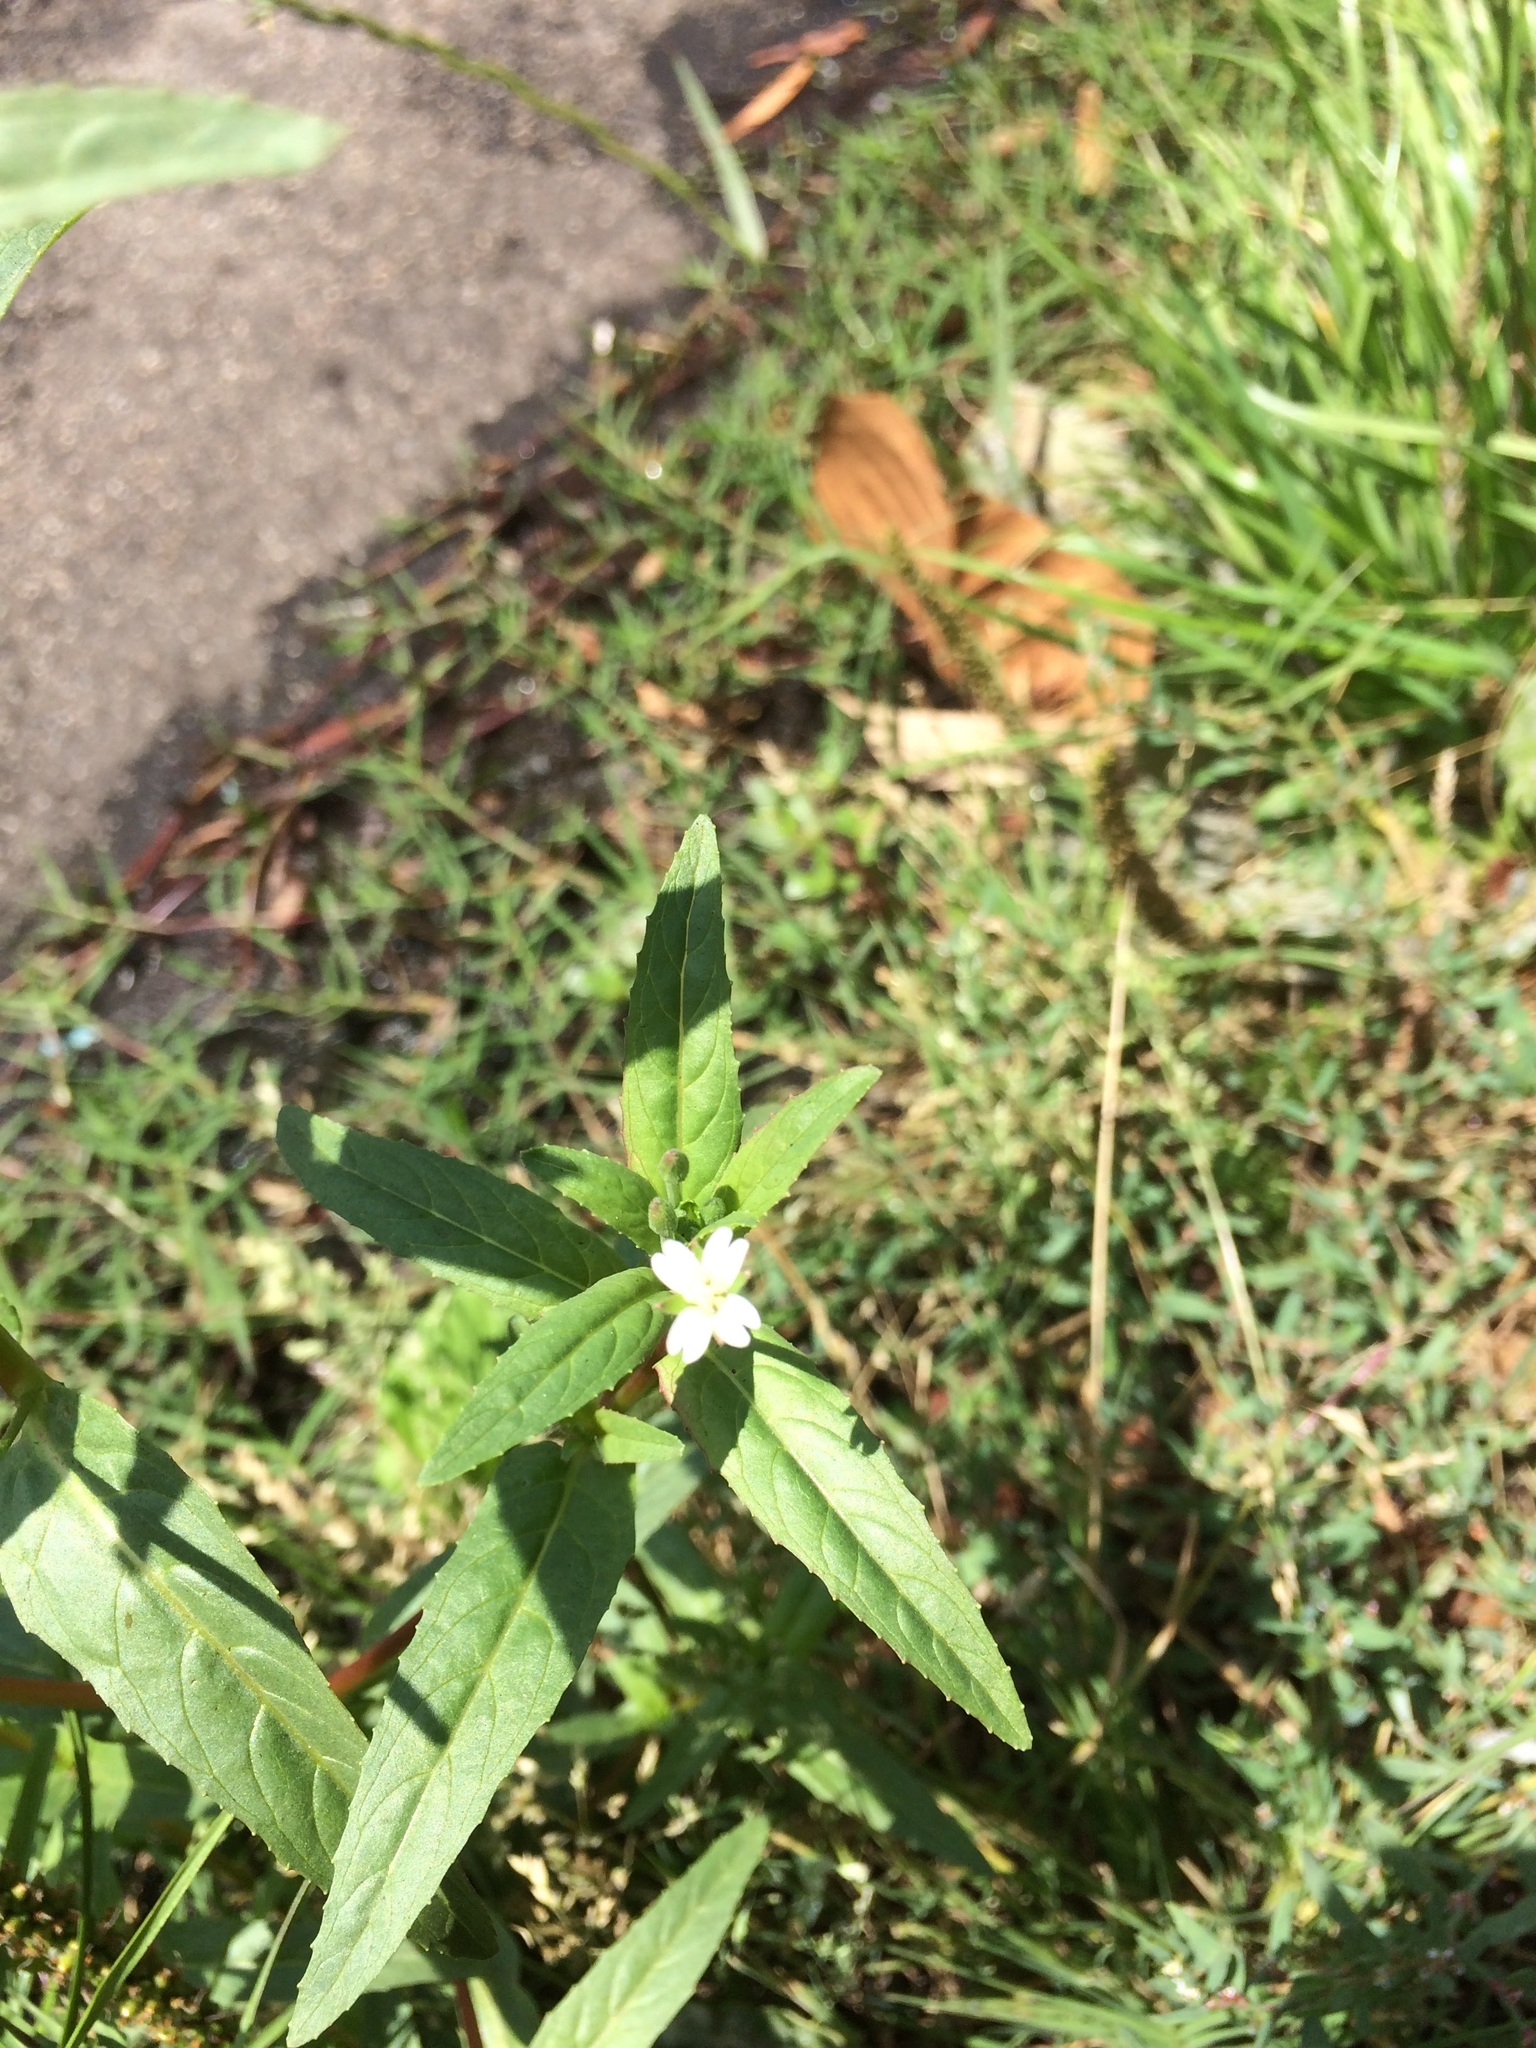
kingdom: Plantae
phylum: Tracheophyta
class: Magnoliopsida
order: Myrtales
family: Onagraceae
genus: Epilobium
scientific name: Epilobium ciliatum
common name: American willowherb
